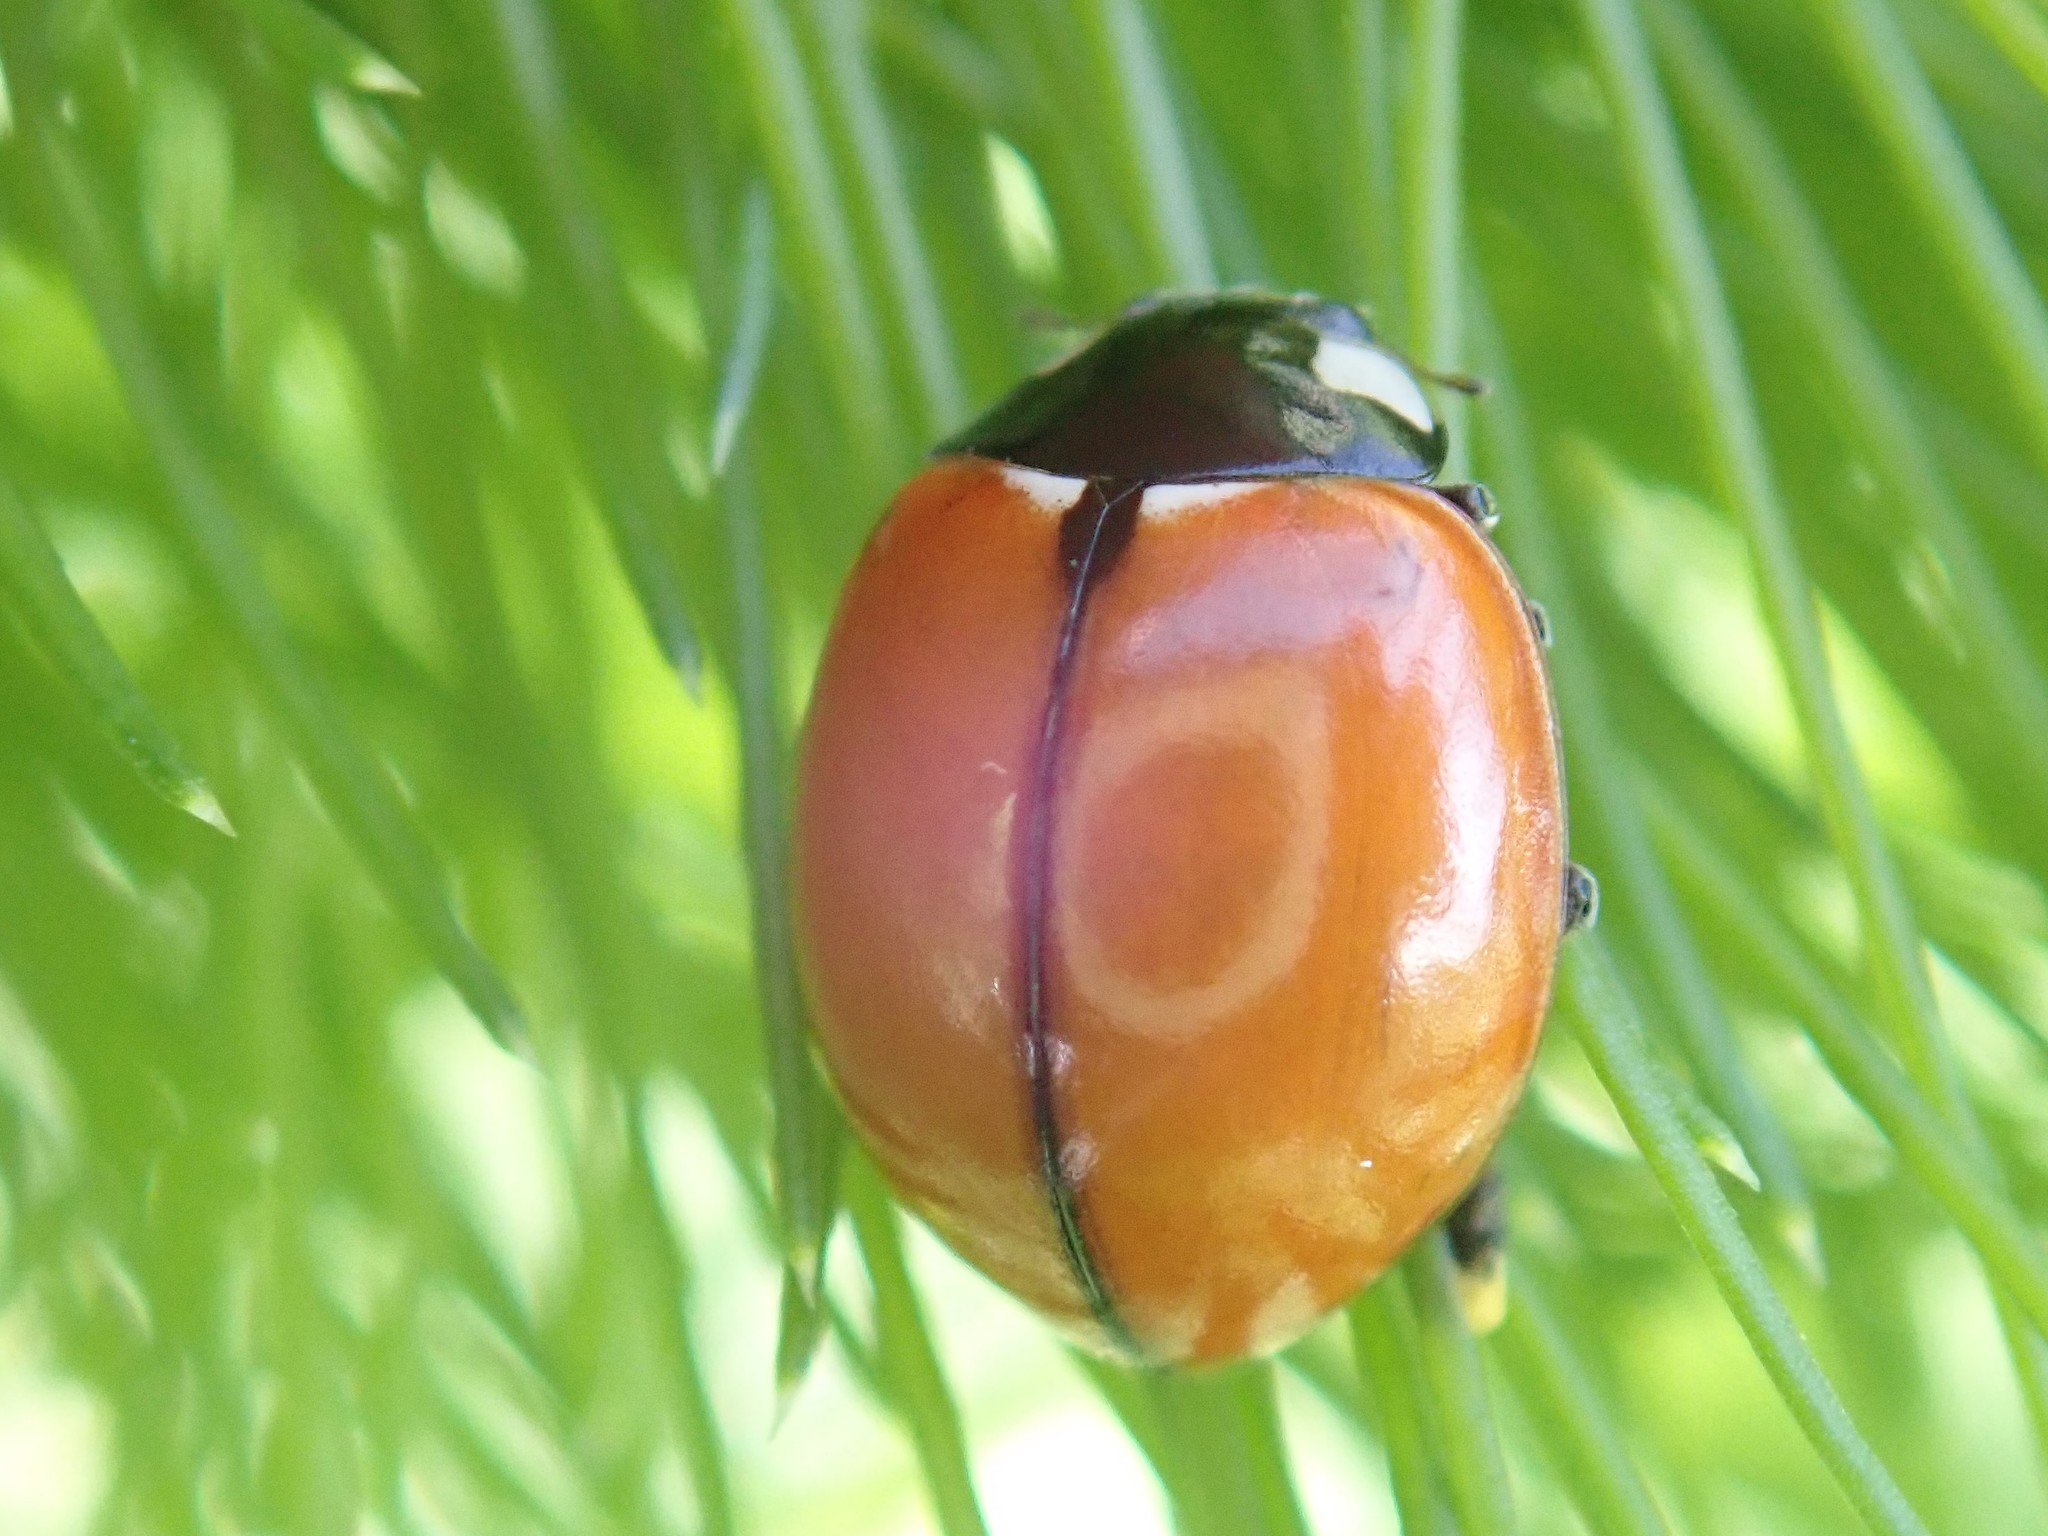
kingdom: Animalia
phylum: Arthropoda
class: Insecta
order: Coleoptera
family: Coccinellidae
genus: Coccinella
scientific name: Coccinella californica
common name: Lady beetle
